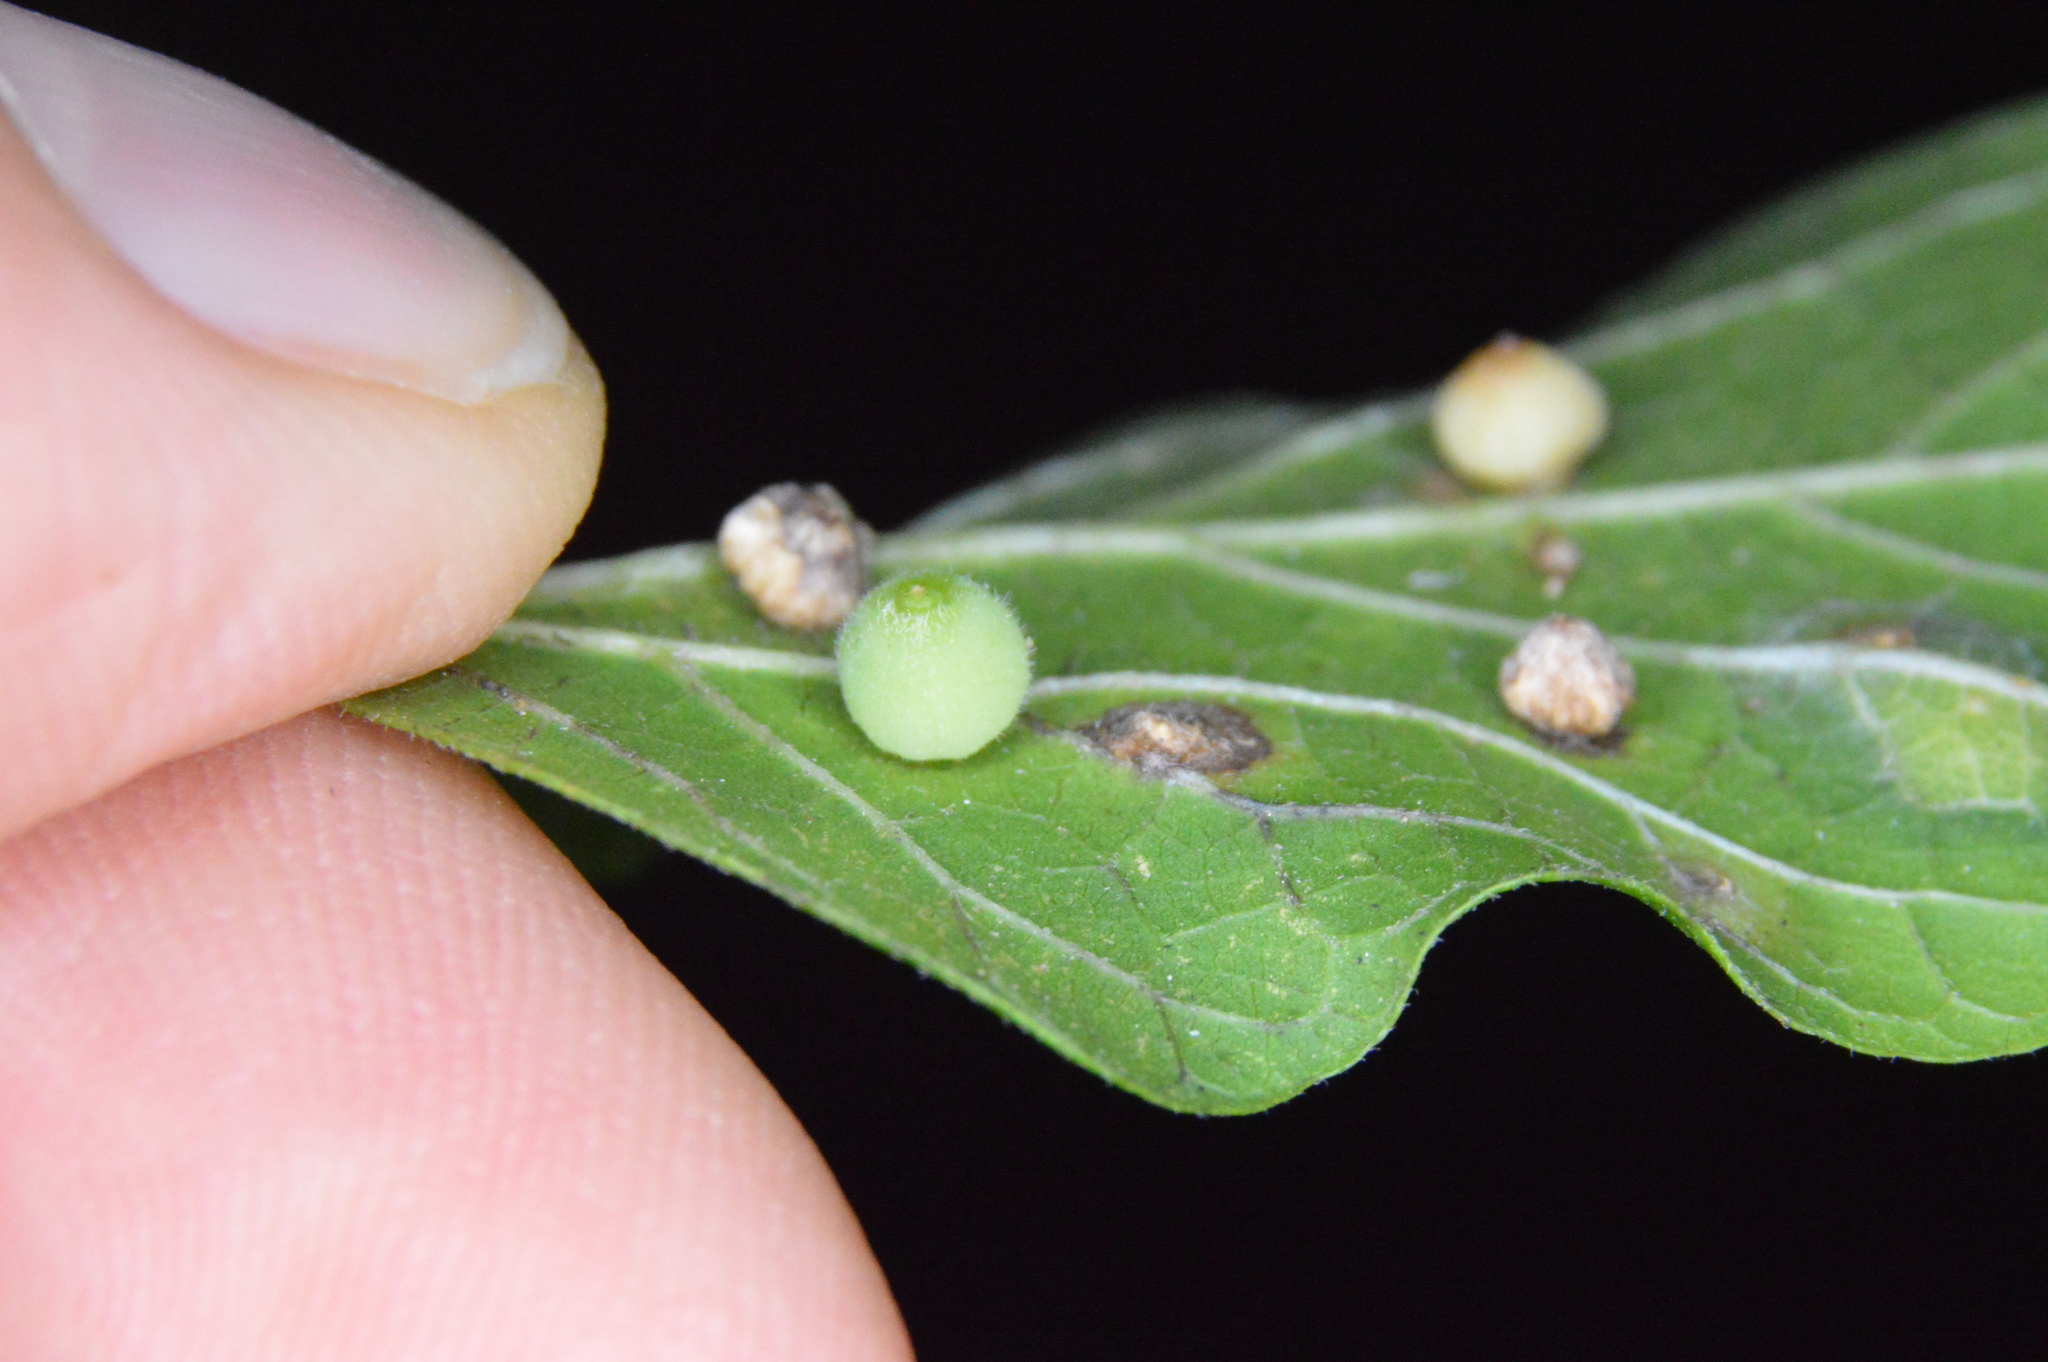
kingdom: Animalia
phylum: Arthropoda
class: Insecta
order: Diptera
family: Cecidomyiidae
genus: Celticecis
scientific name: Celticecis globosa
